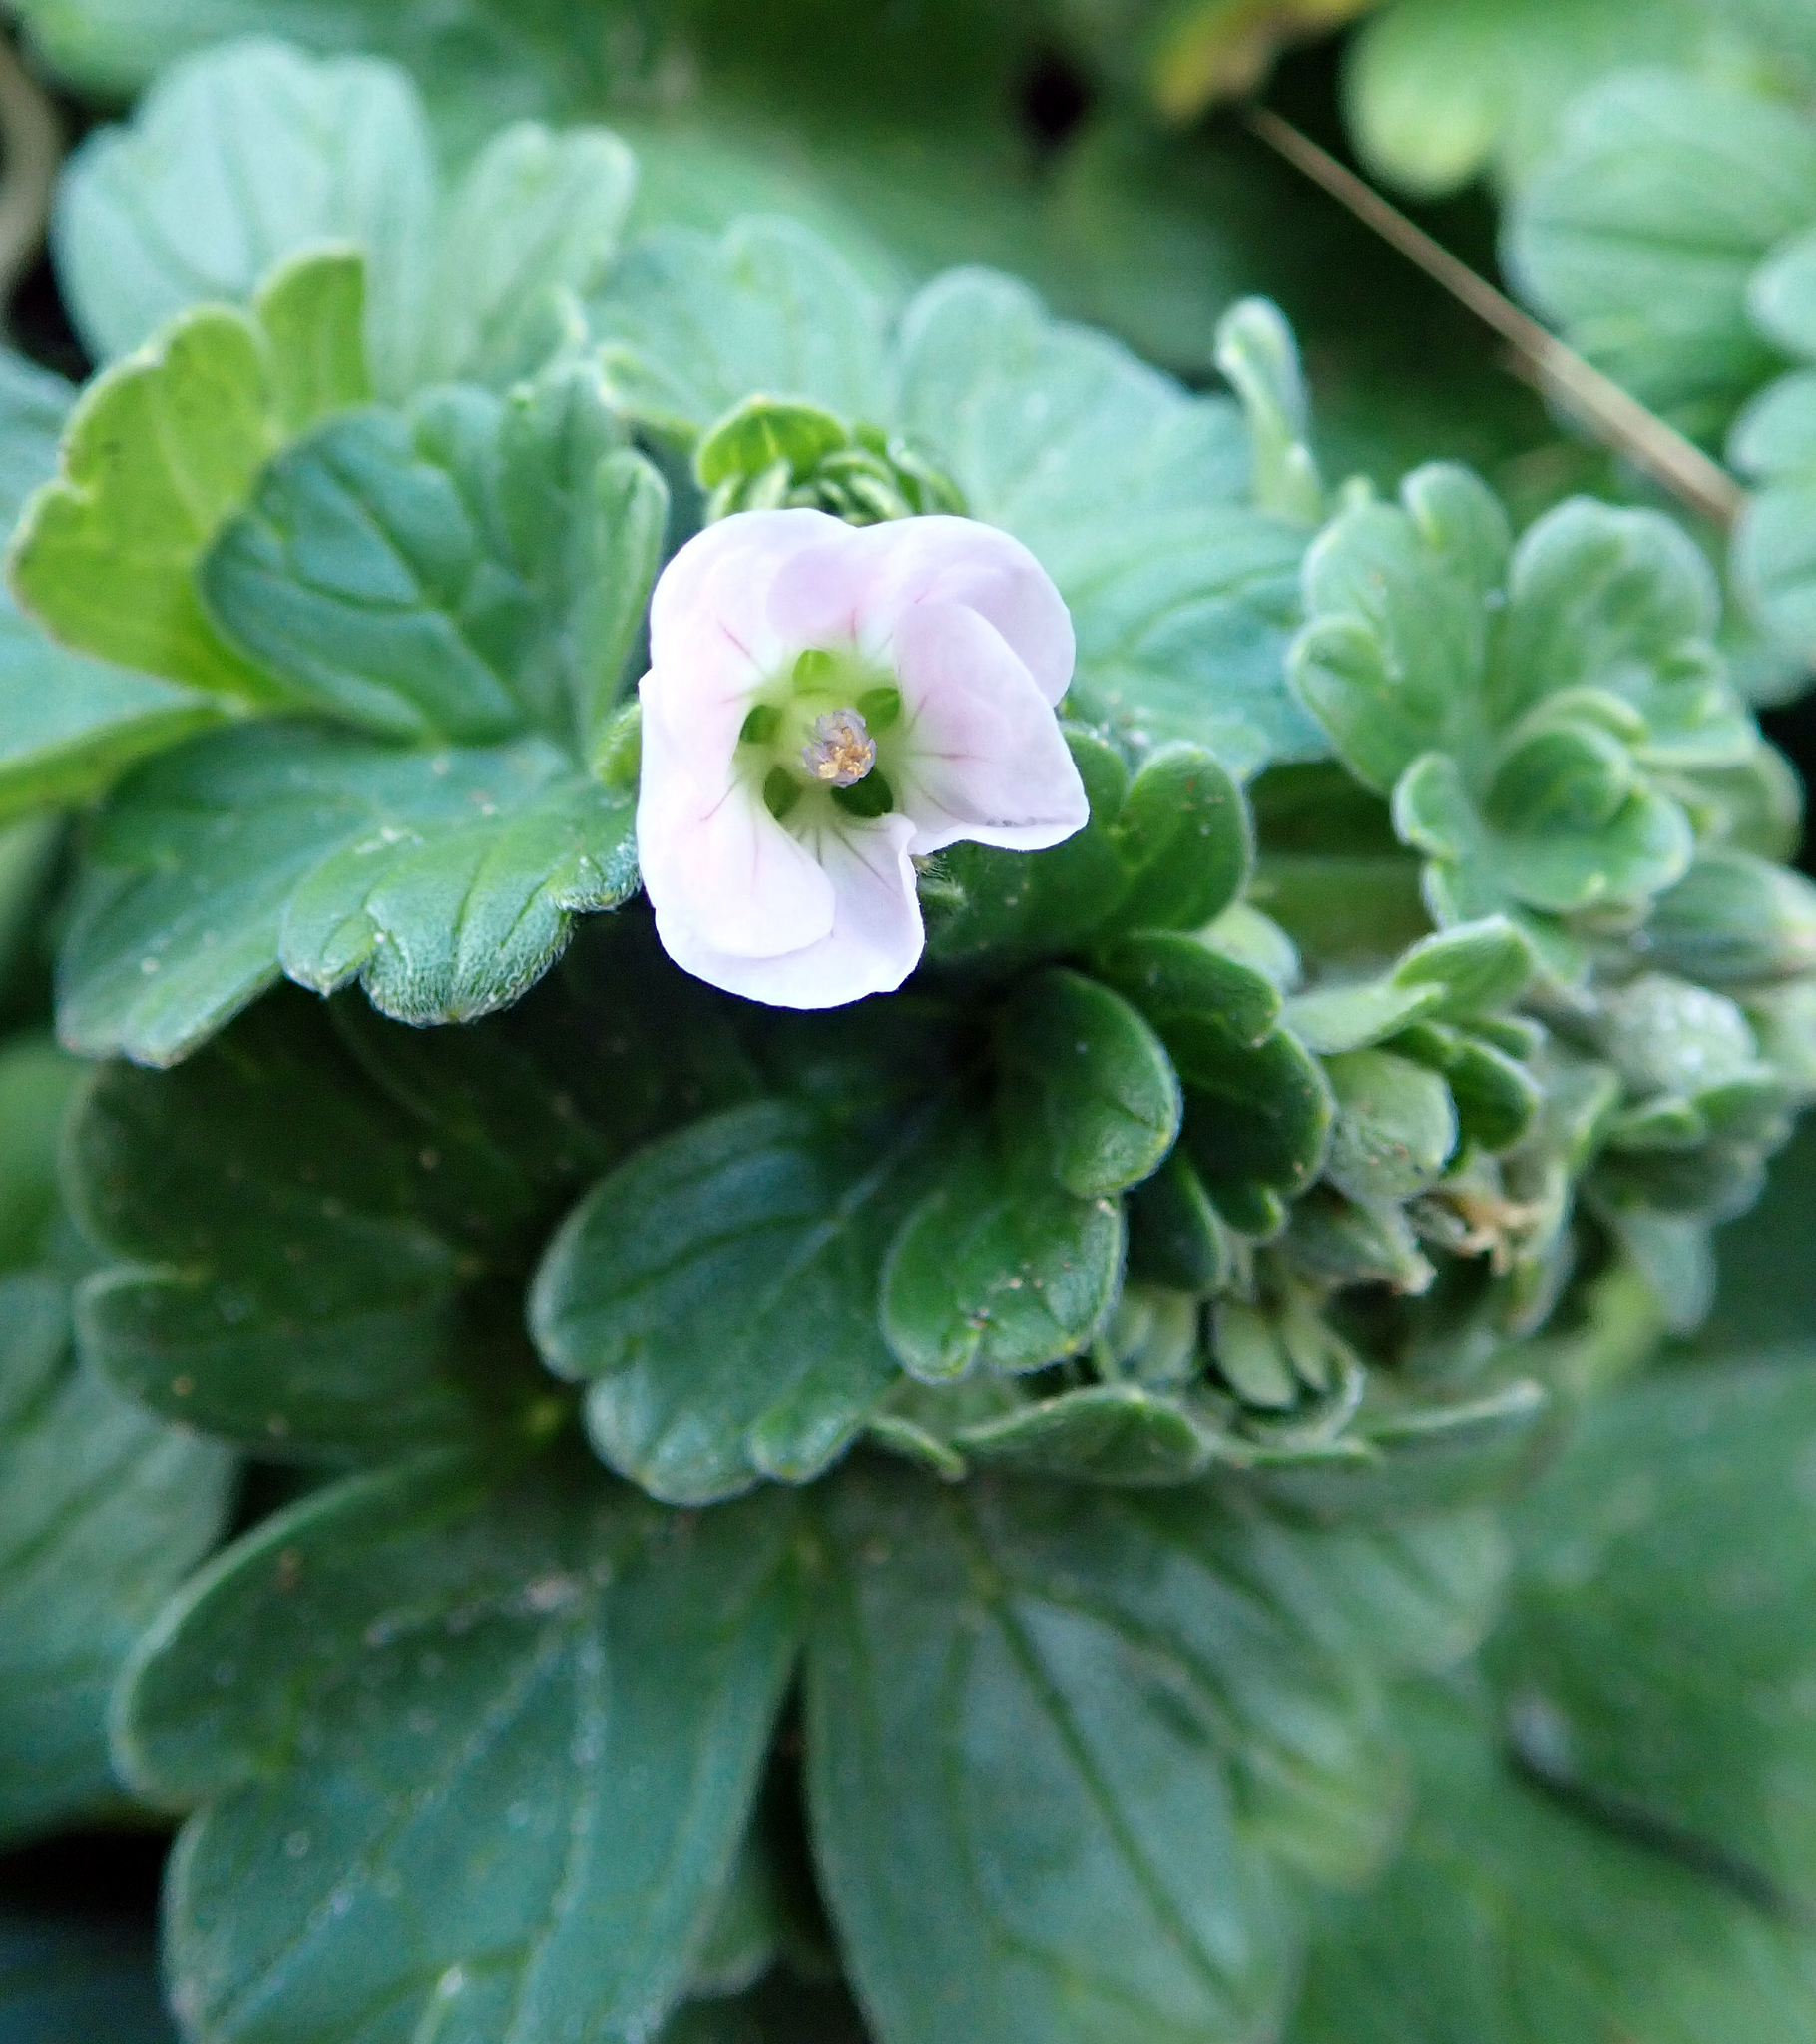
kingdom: Plantae
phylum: Tracheophyta
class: Magnoliopsida
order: Geraniales
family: Geraniaceae
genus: Geranium
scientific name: Geranium traversii
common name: Cranesbill
